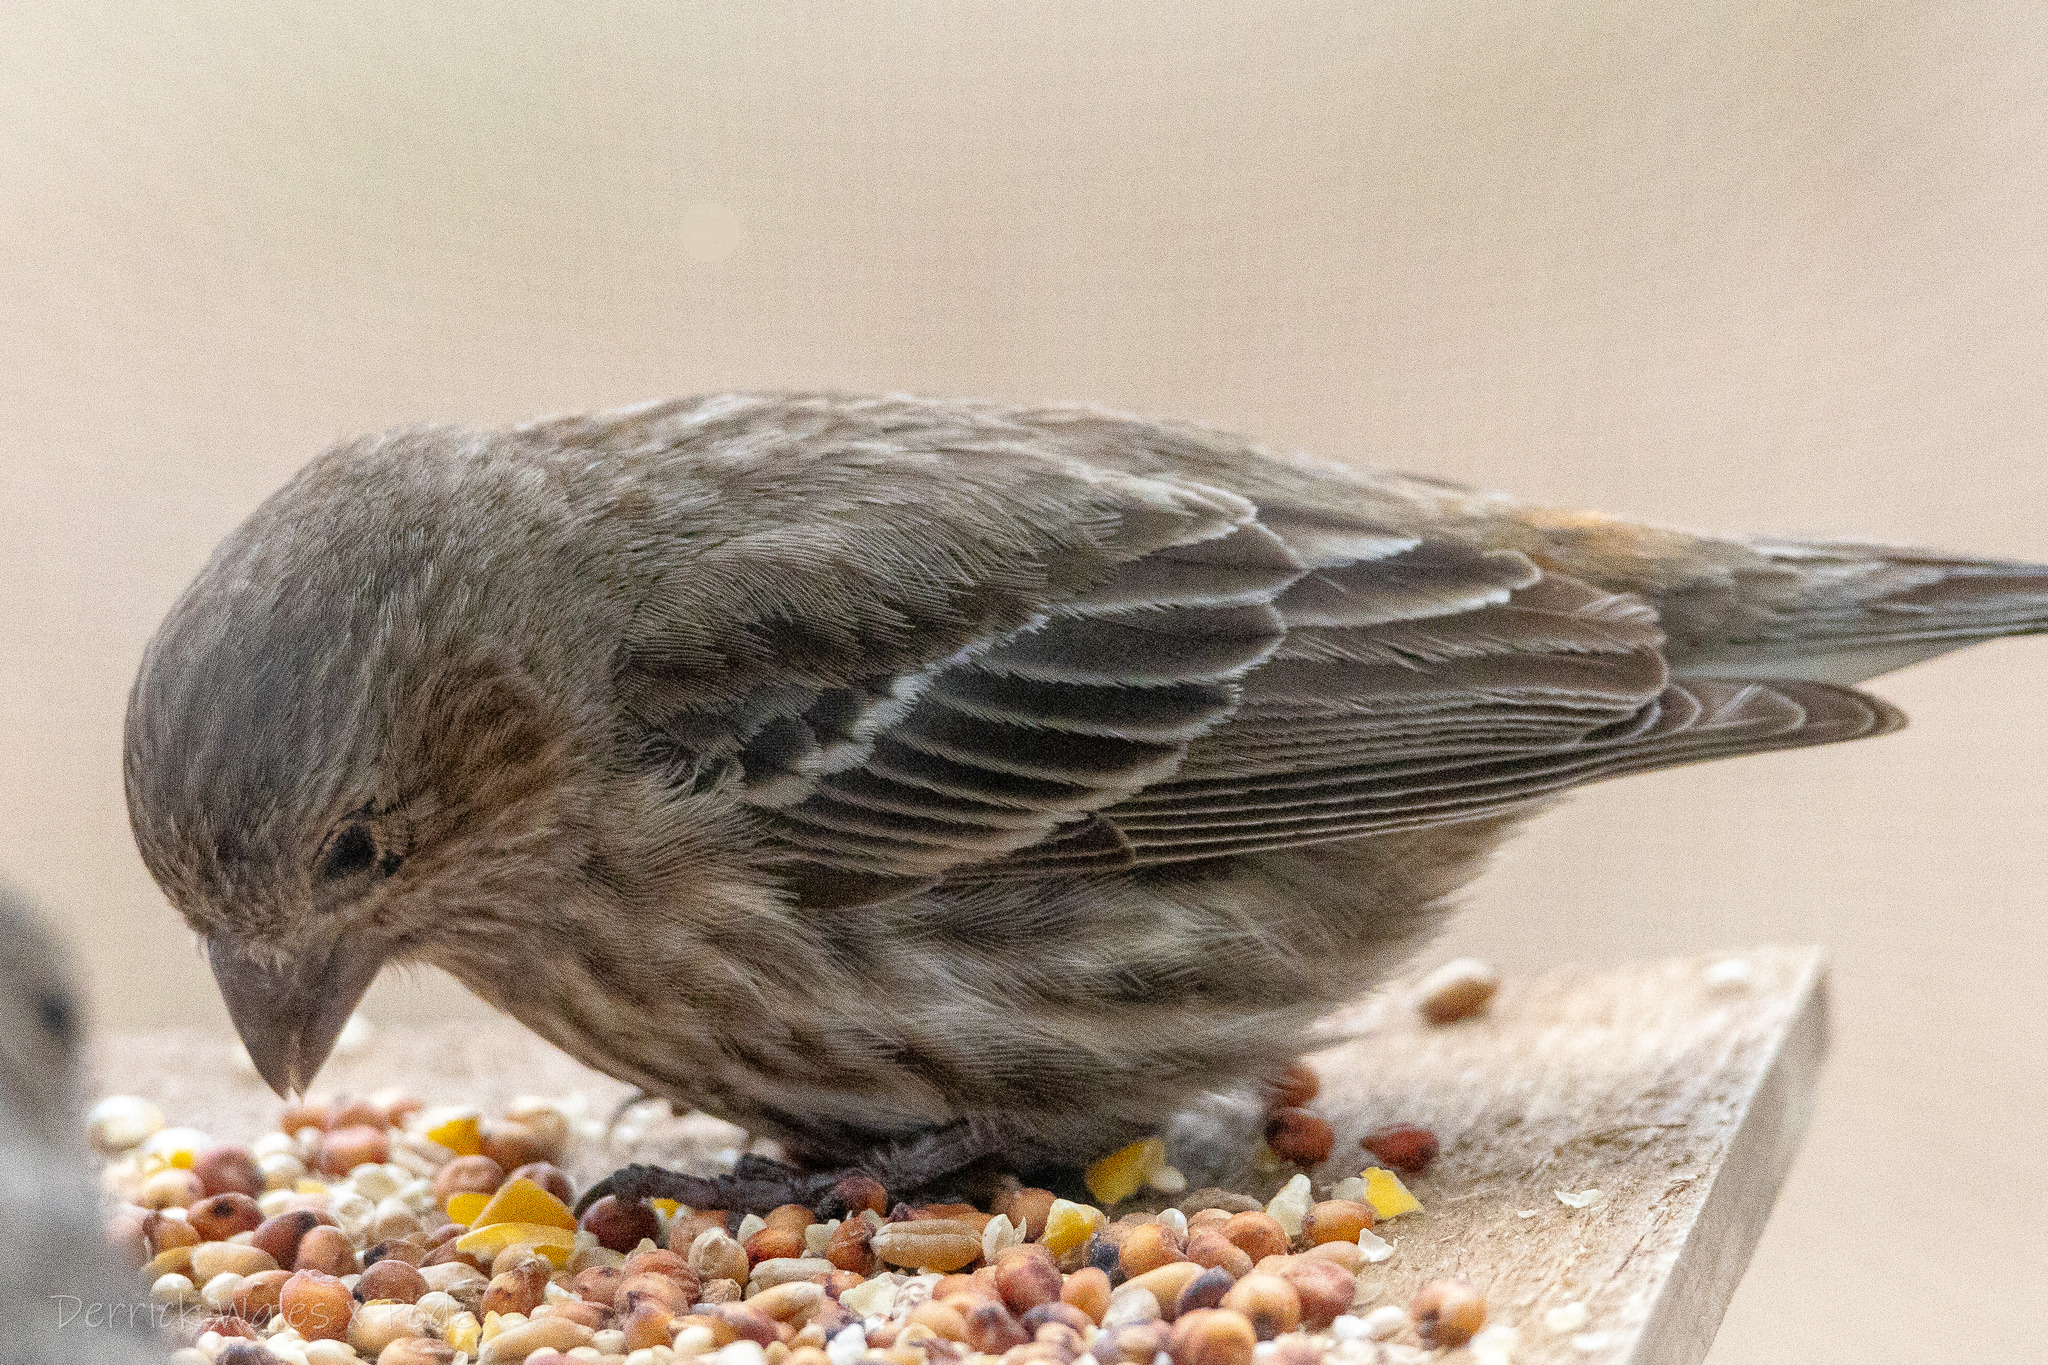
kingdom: Animalia
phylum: Chordata
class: Aves
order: Passeriformes
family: Fringillidae
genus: Haemorhous
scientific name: Haemorhous mexicanus
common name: House finch
